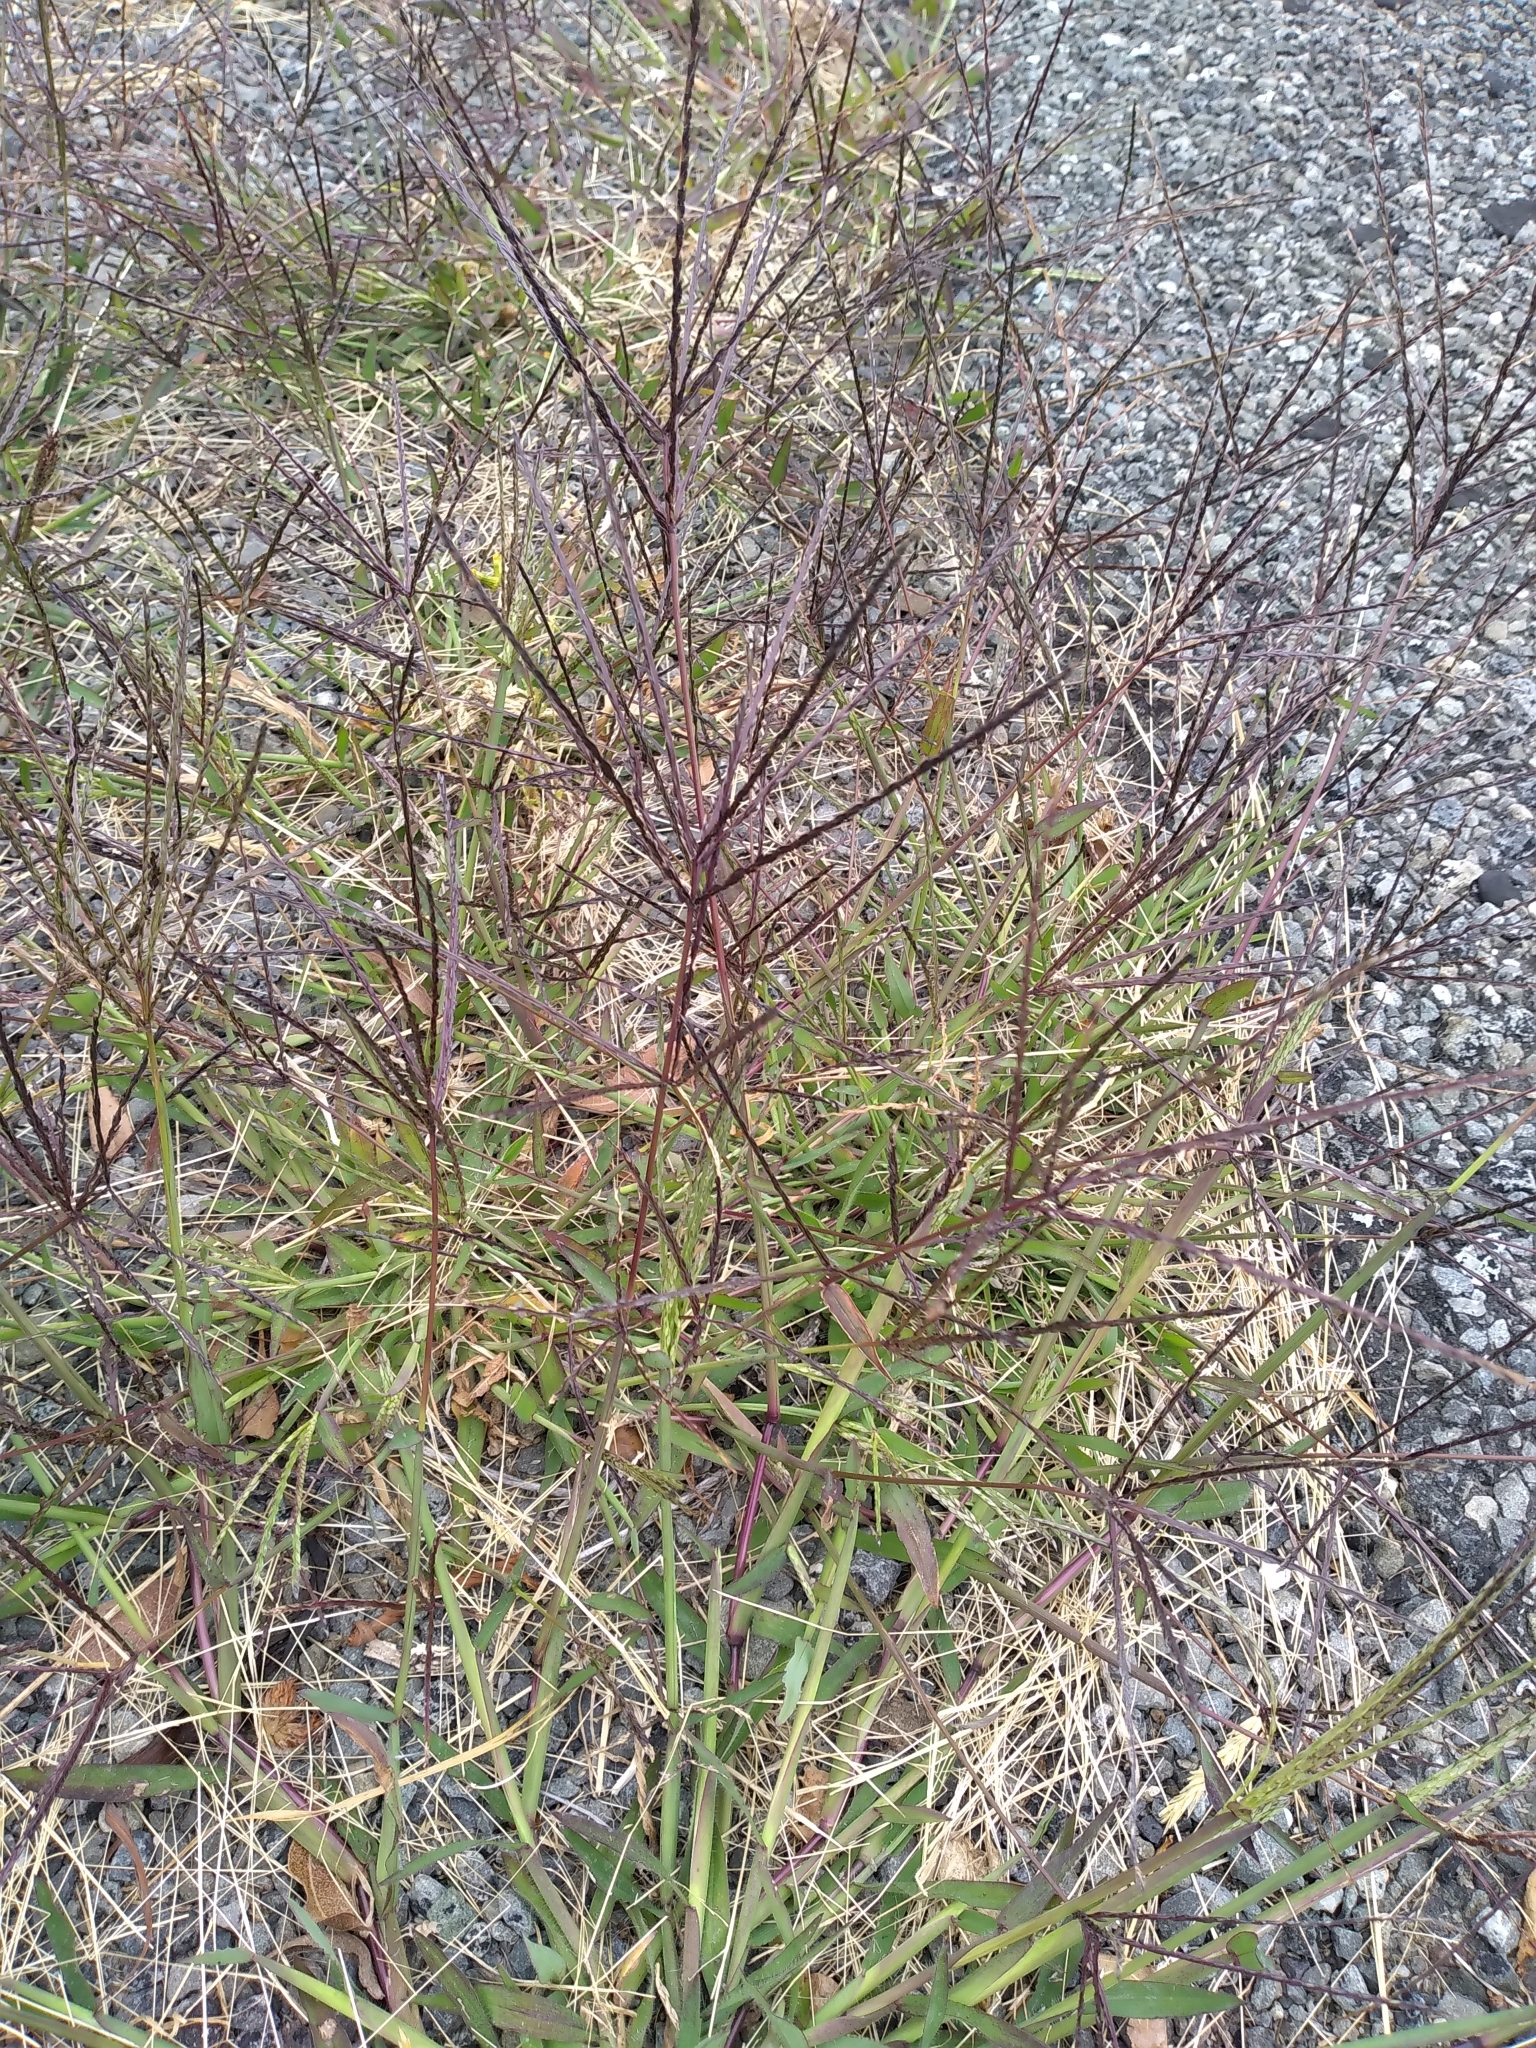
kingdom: Plantae
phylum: Tracheophyta
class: Liliopsida
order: Poales
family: Poaceae
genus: Digitaria
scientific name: Digitaria sanguinalis
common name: Hairy crabgrass
